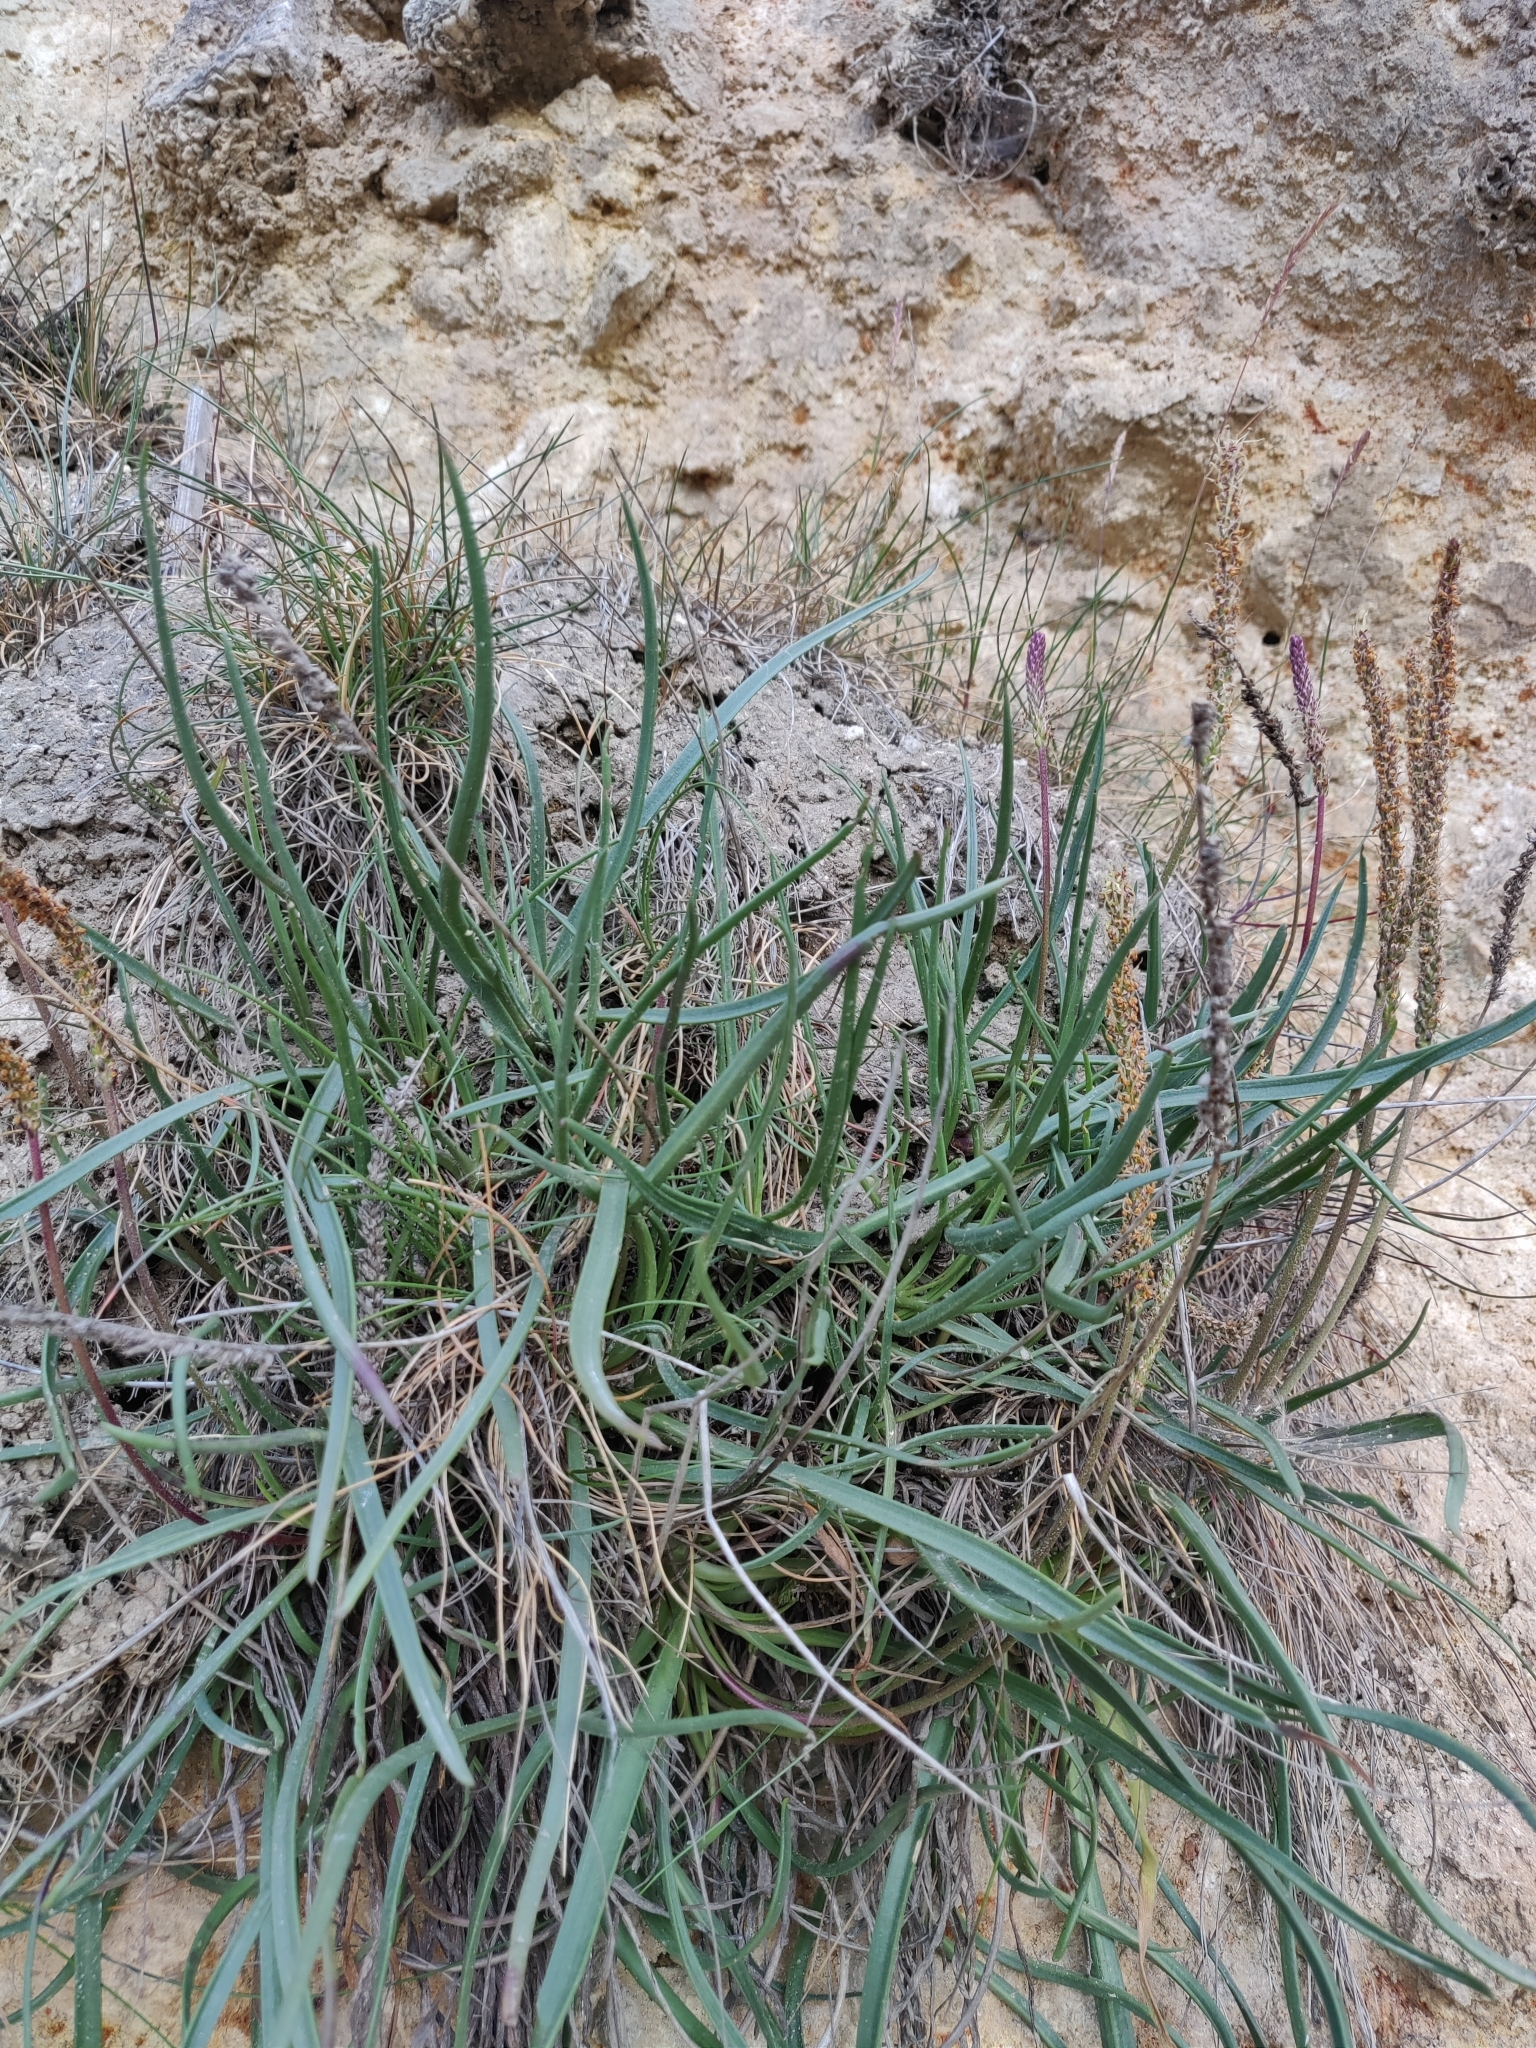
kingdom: Plantae
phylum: Tracheophyta
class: Magnoliopsida
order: Lamiales
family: Plantaginaceae
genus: Plantago
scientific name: Plantago maritima
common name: Sea plantain
